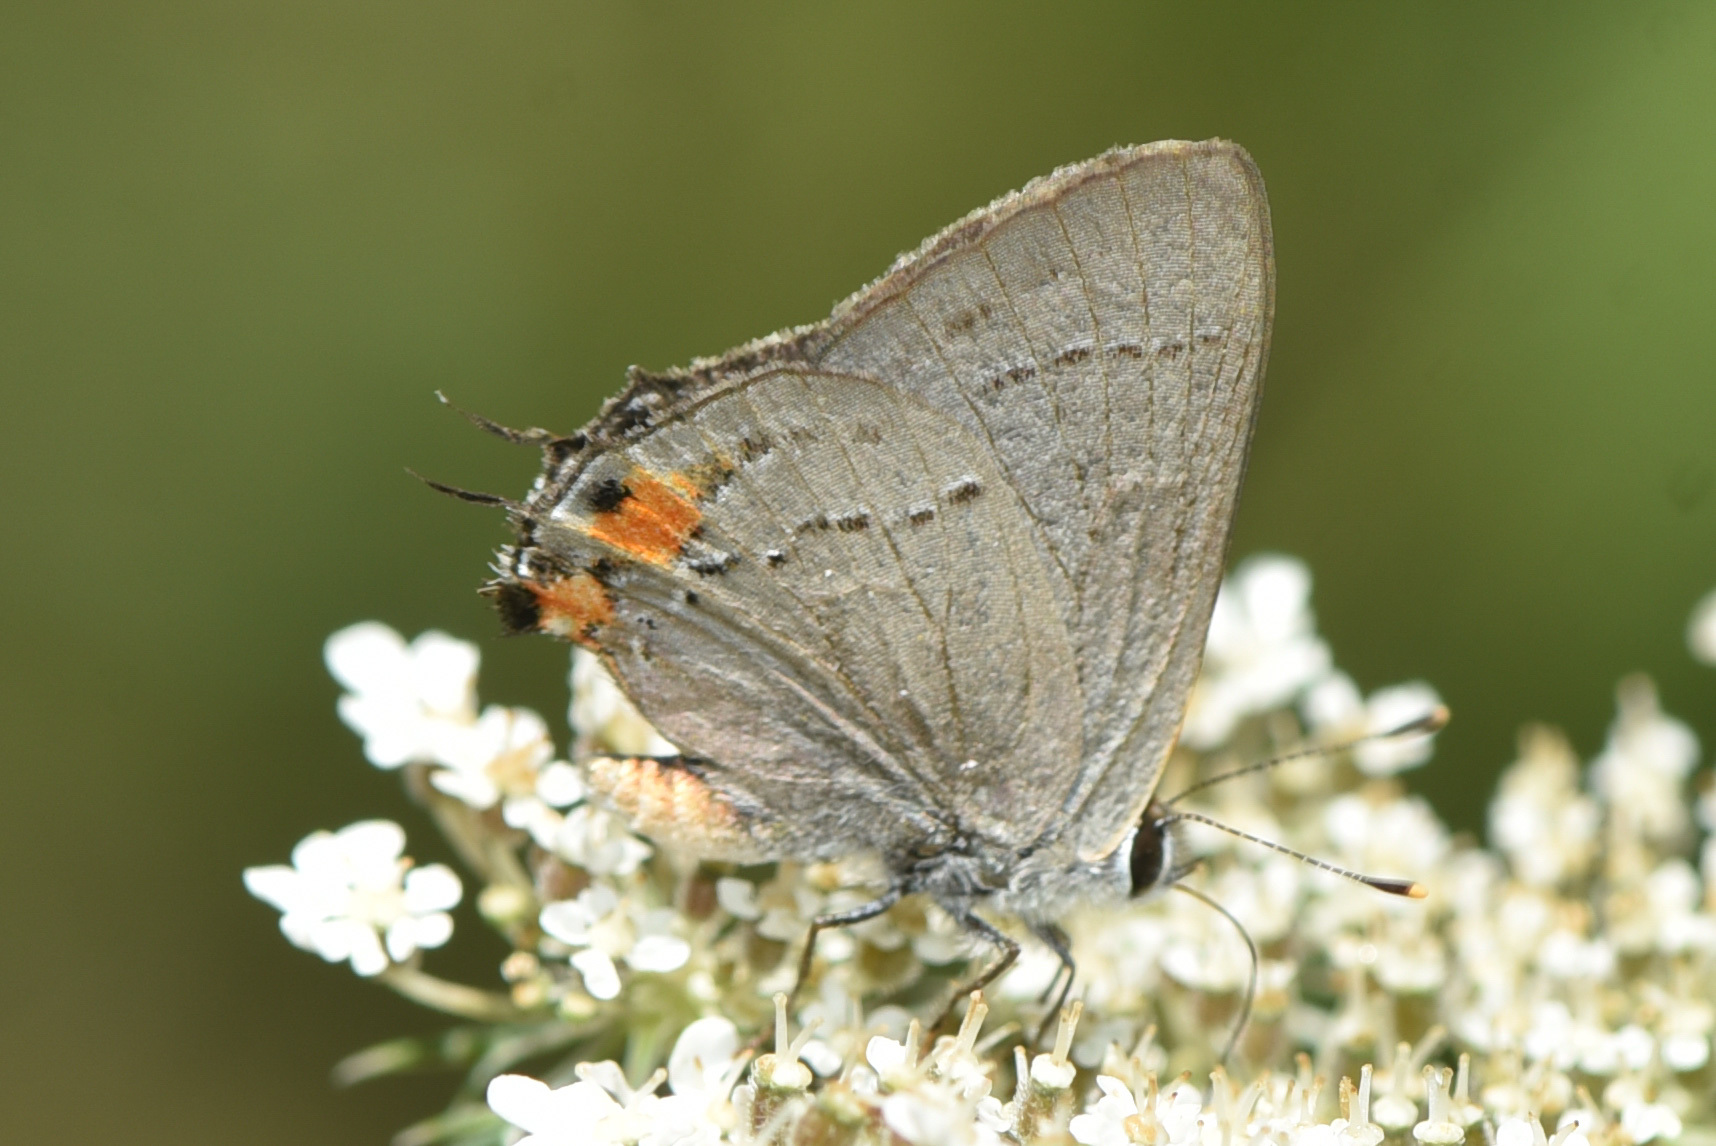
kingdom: Animalia
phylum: Arthropoda
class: Insecta
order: Lepidoptera
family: Lycaenidae
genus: Strymon
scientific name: Strymon melinus
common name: Gray hairstreak
